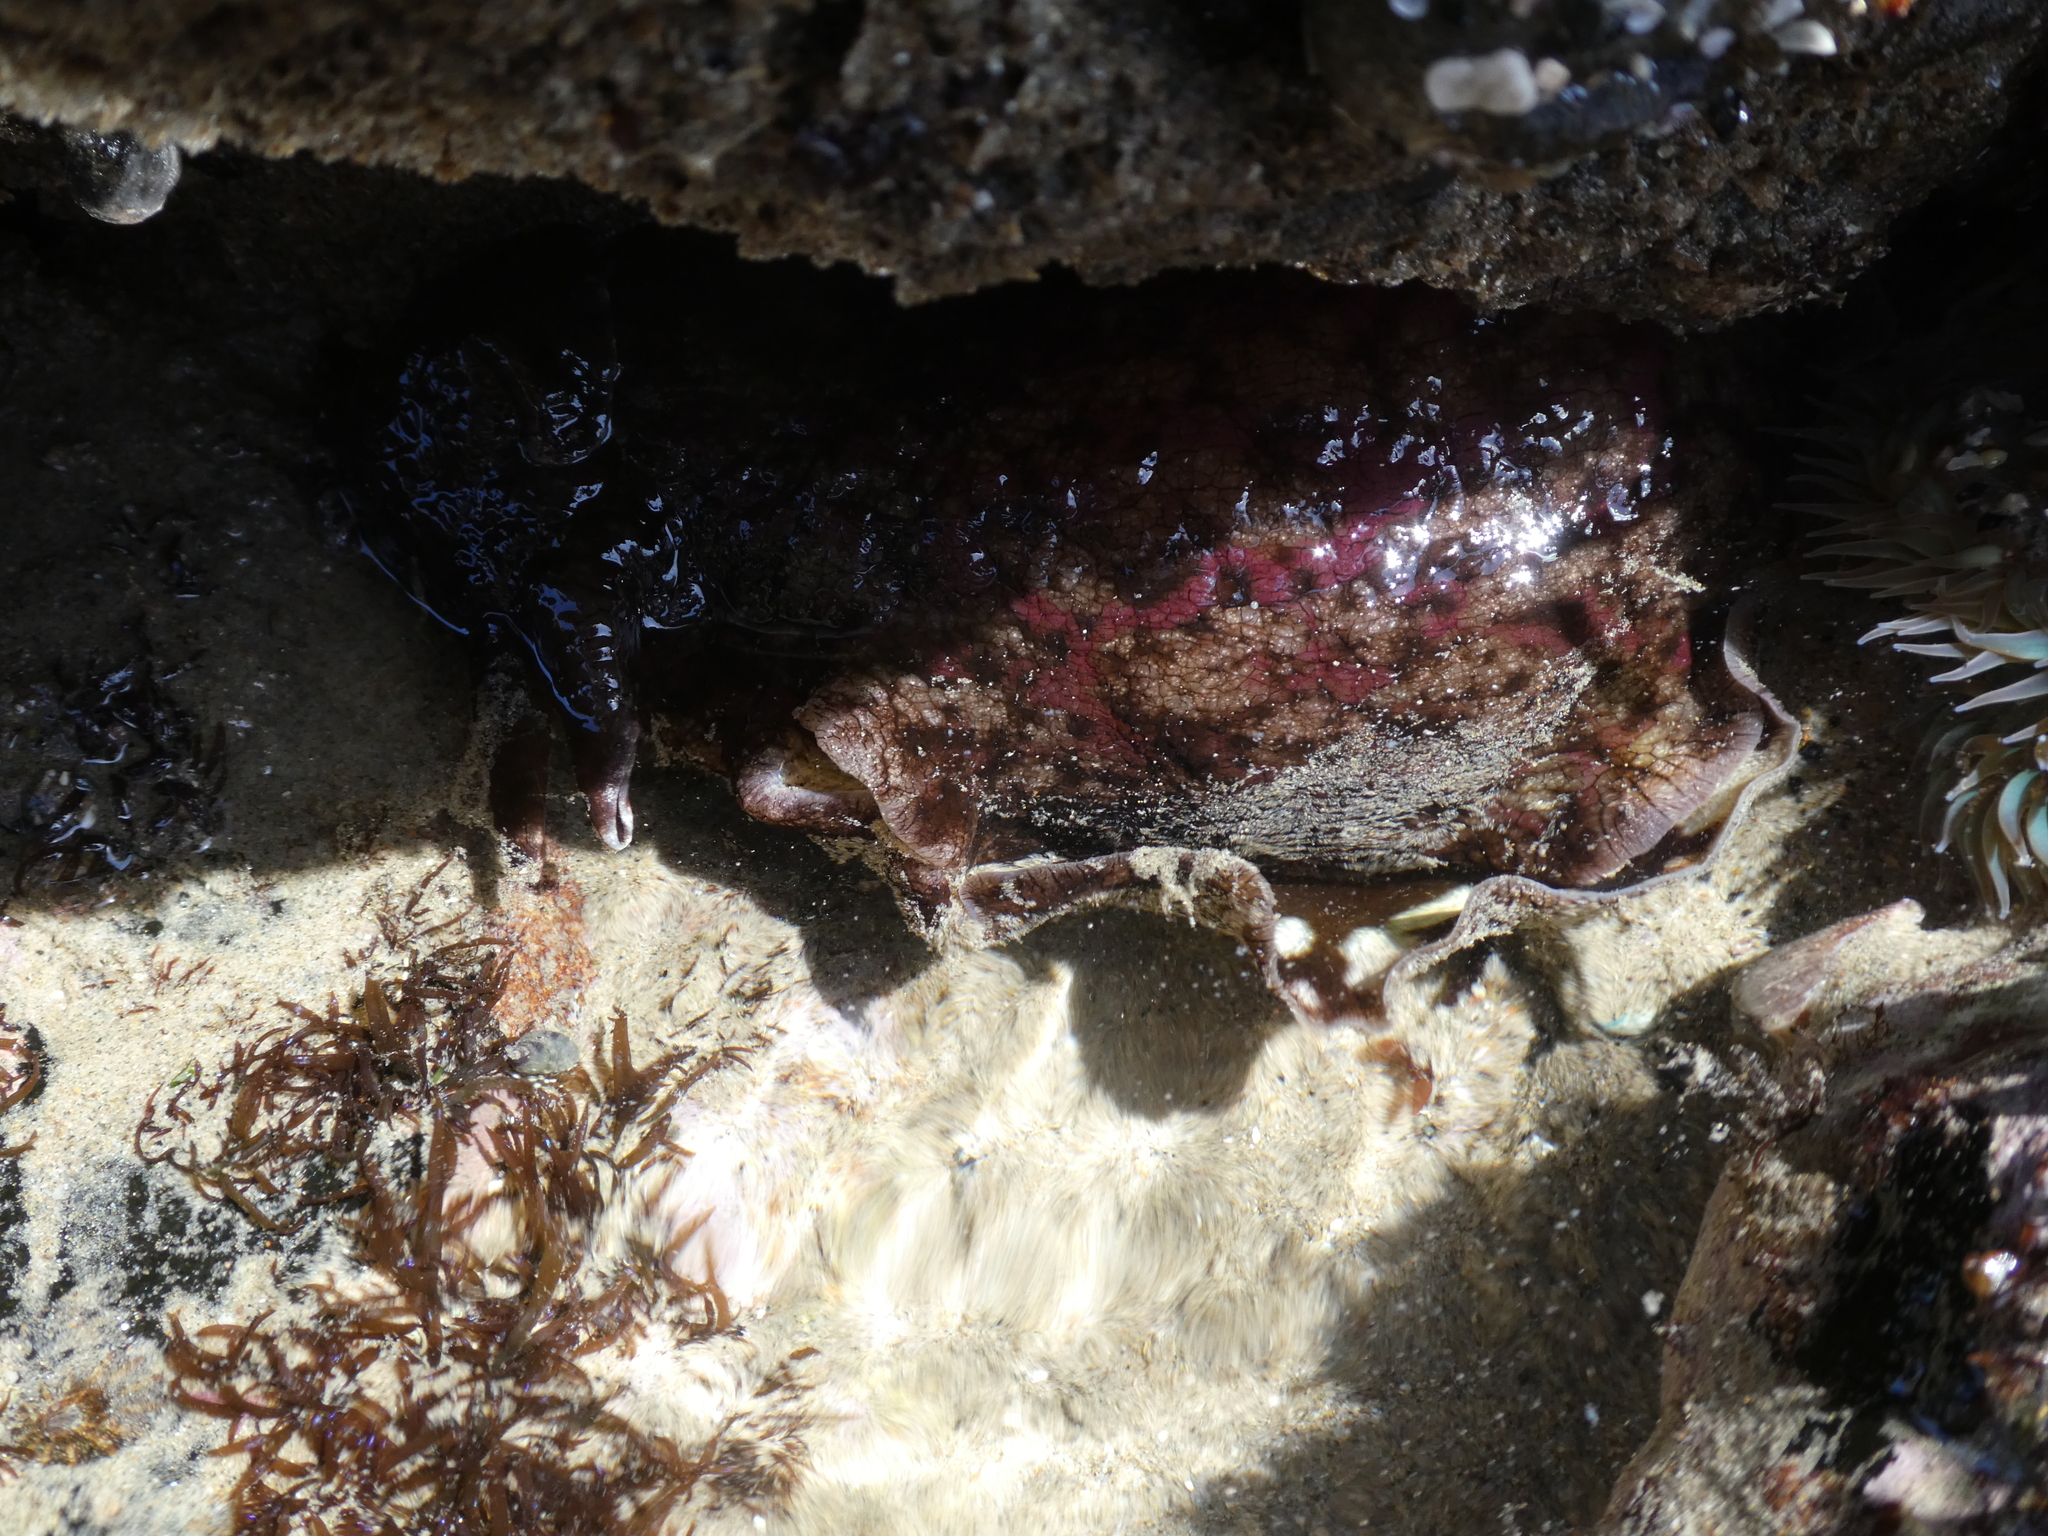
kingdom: Animalia
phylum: Mollusca
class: Gastropoda
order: Aplysiida
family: Aplysiidae
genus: Aplysia
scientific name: Aplysia californica
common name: California seahare
